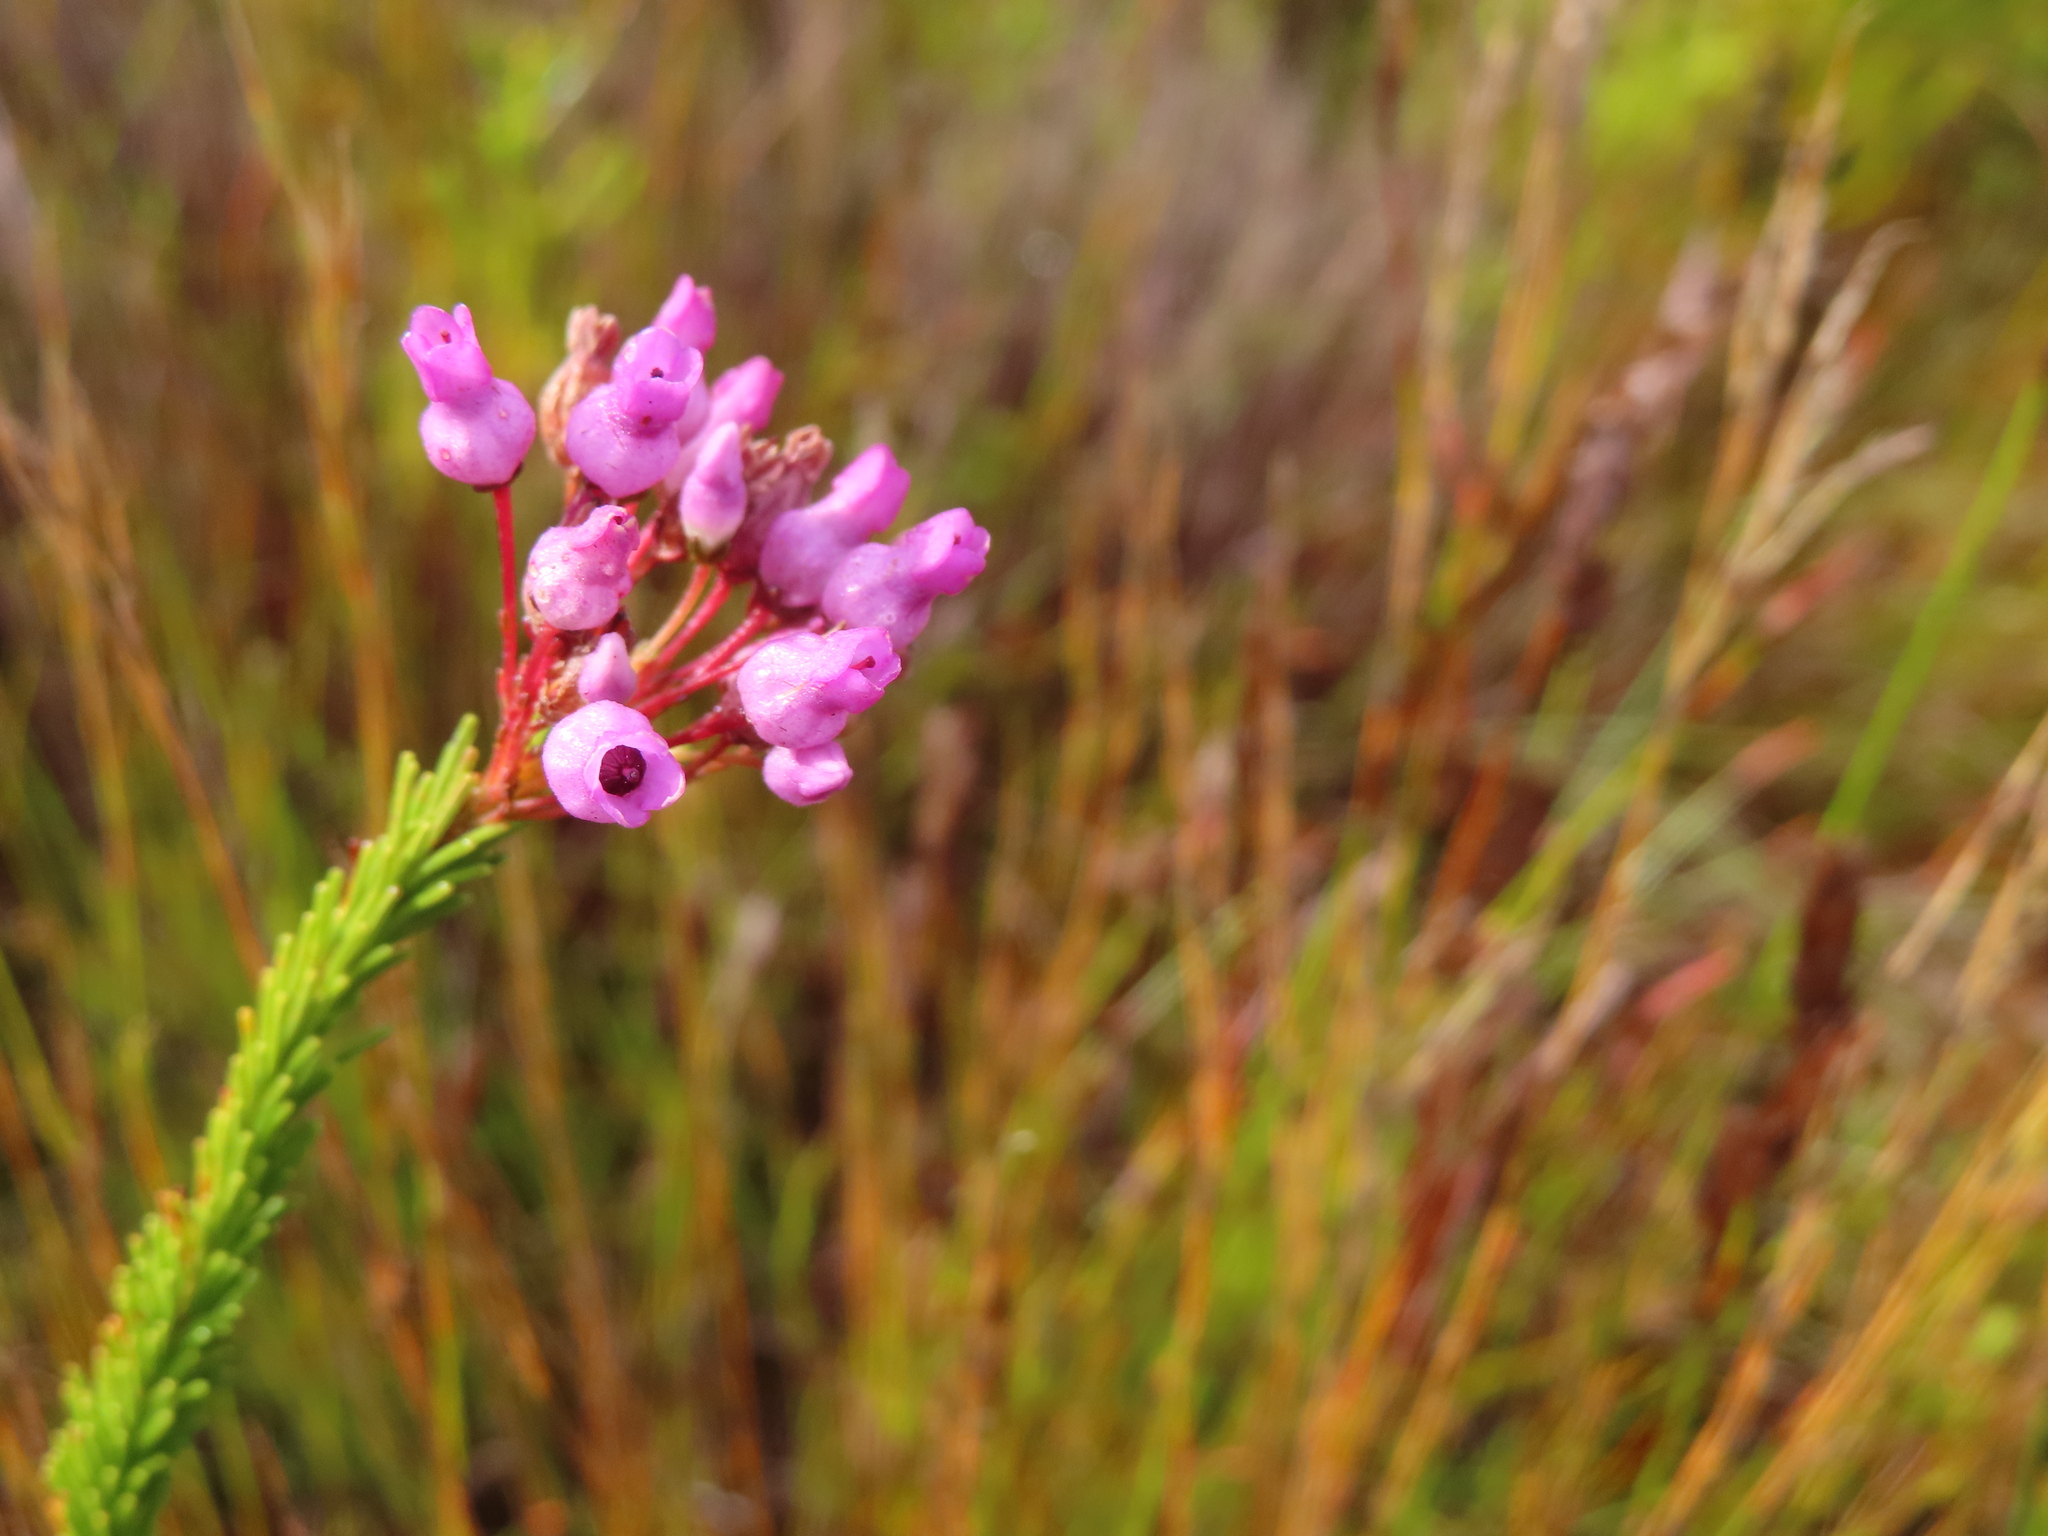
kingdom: Plantae
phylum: Tracheophyta
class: Magnoliopsida
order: Ericales
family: Ericaceae
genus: Erica
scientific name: Erica obliqua
